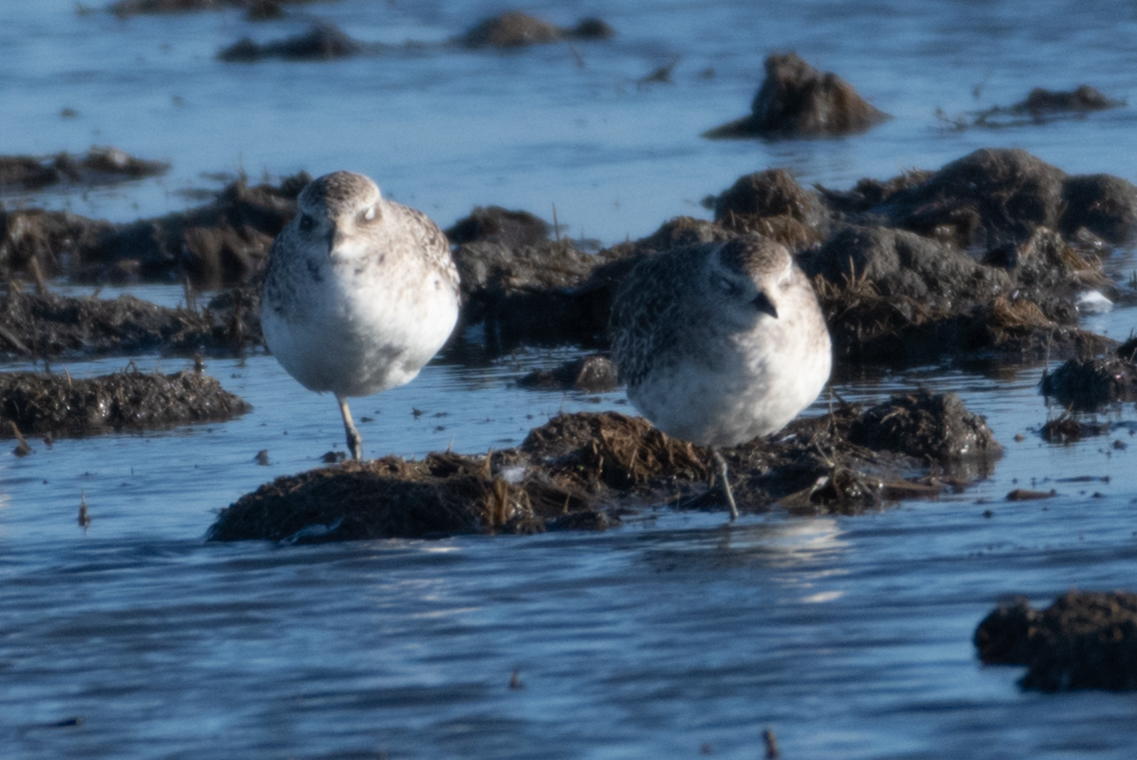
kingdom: Animalia
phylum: Chordata
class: Aves
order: Charadriiformes
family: Charadriidae
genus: Pluvialis
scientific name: Pluvialis squatarola
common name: Grey plover
